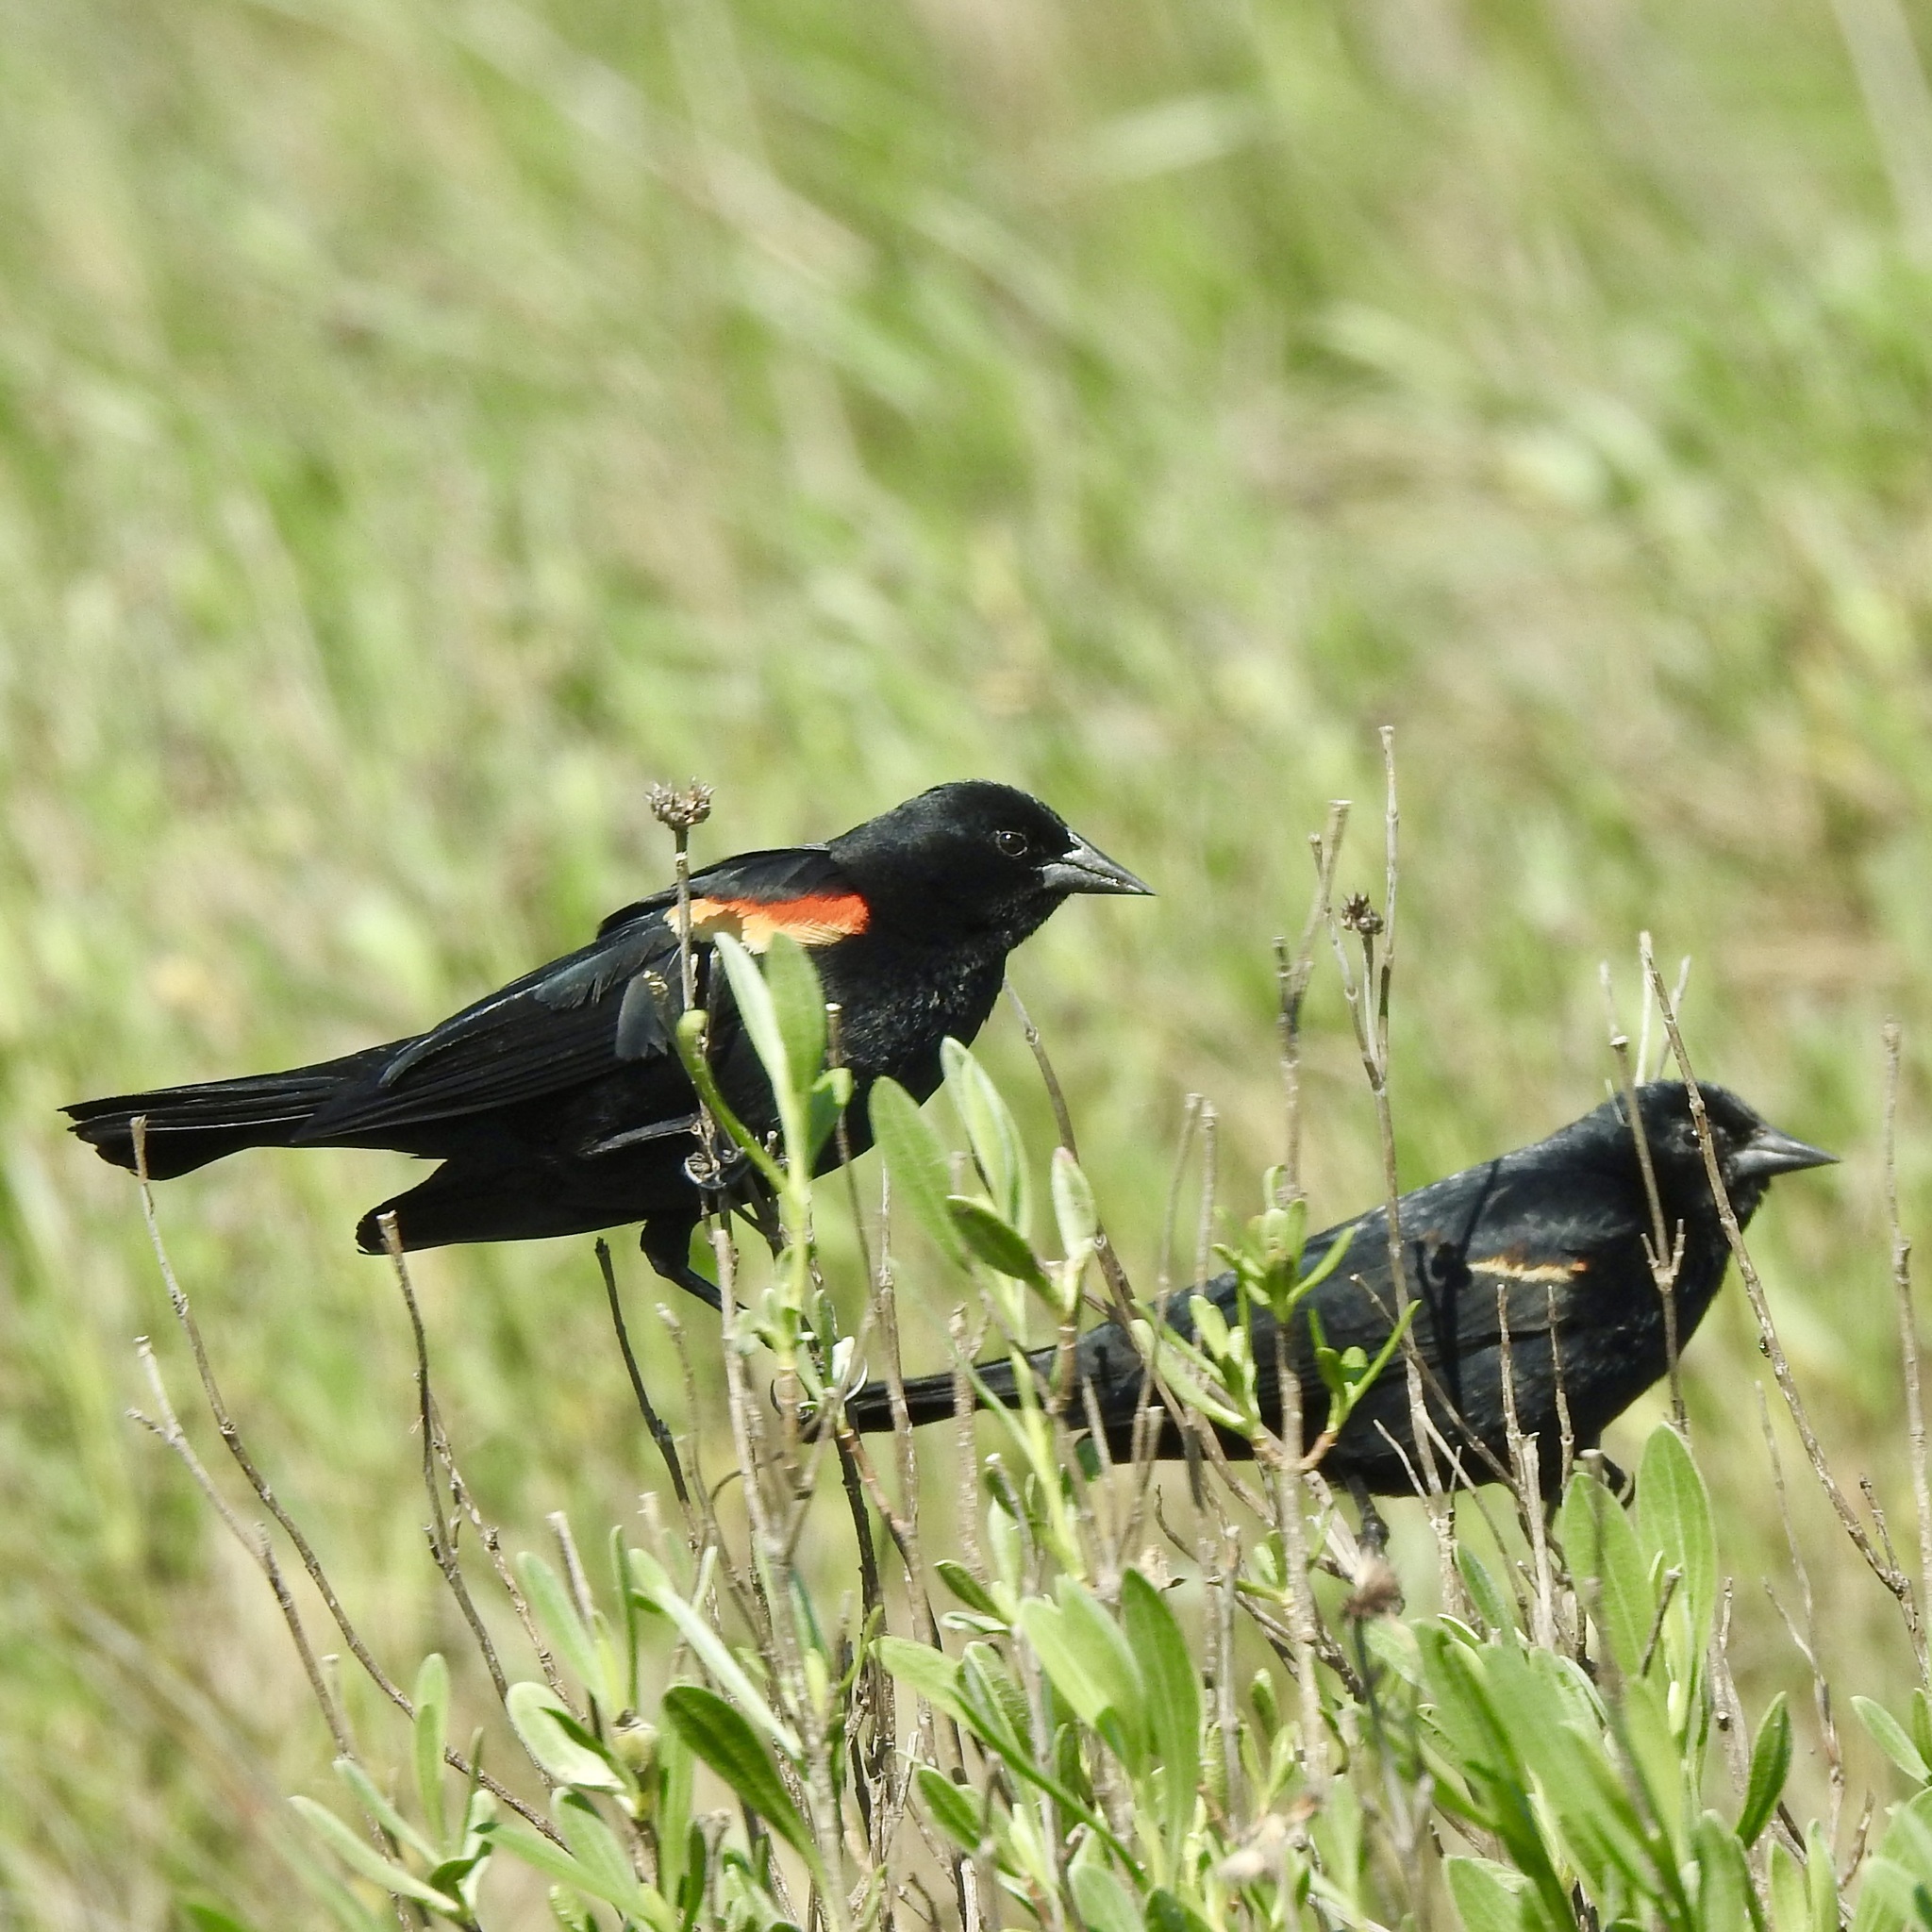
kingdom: Animalia
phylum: Chordata
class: Aves
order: Passeriformes
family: Icteridae
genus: Agelaius
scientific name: Agelaius phoeniceus
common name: Red-winged blackbird
